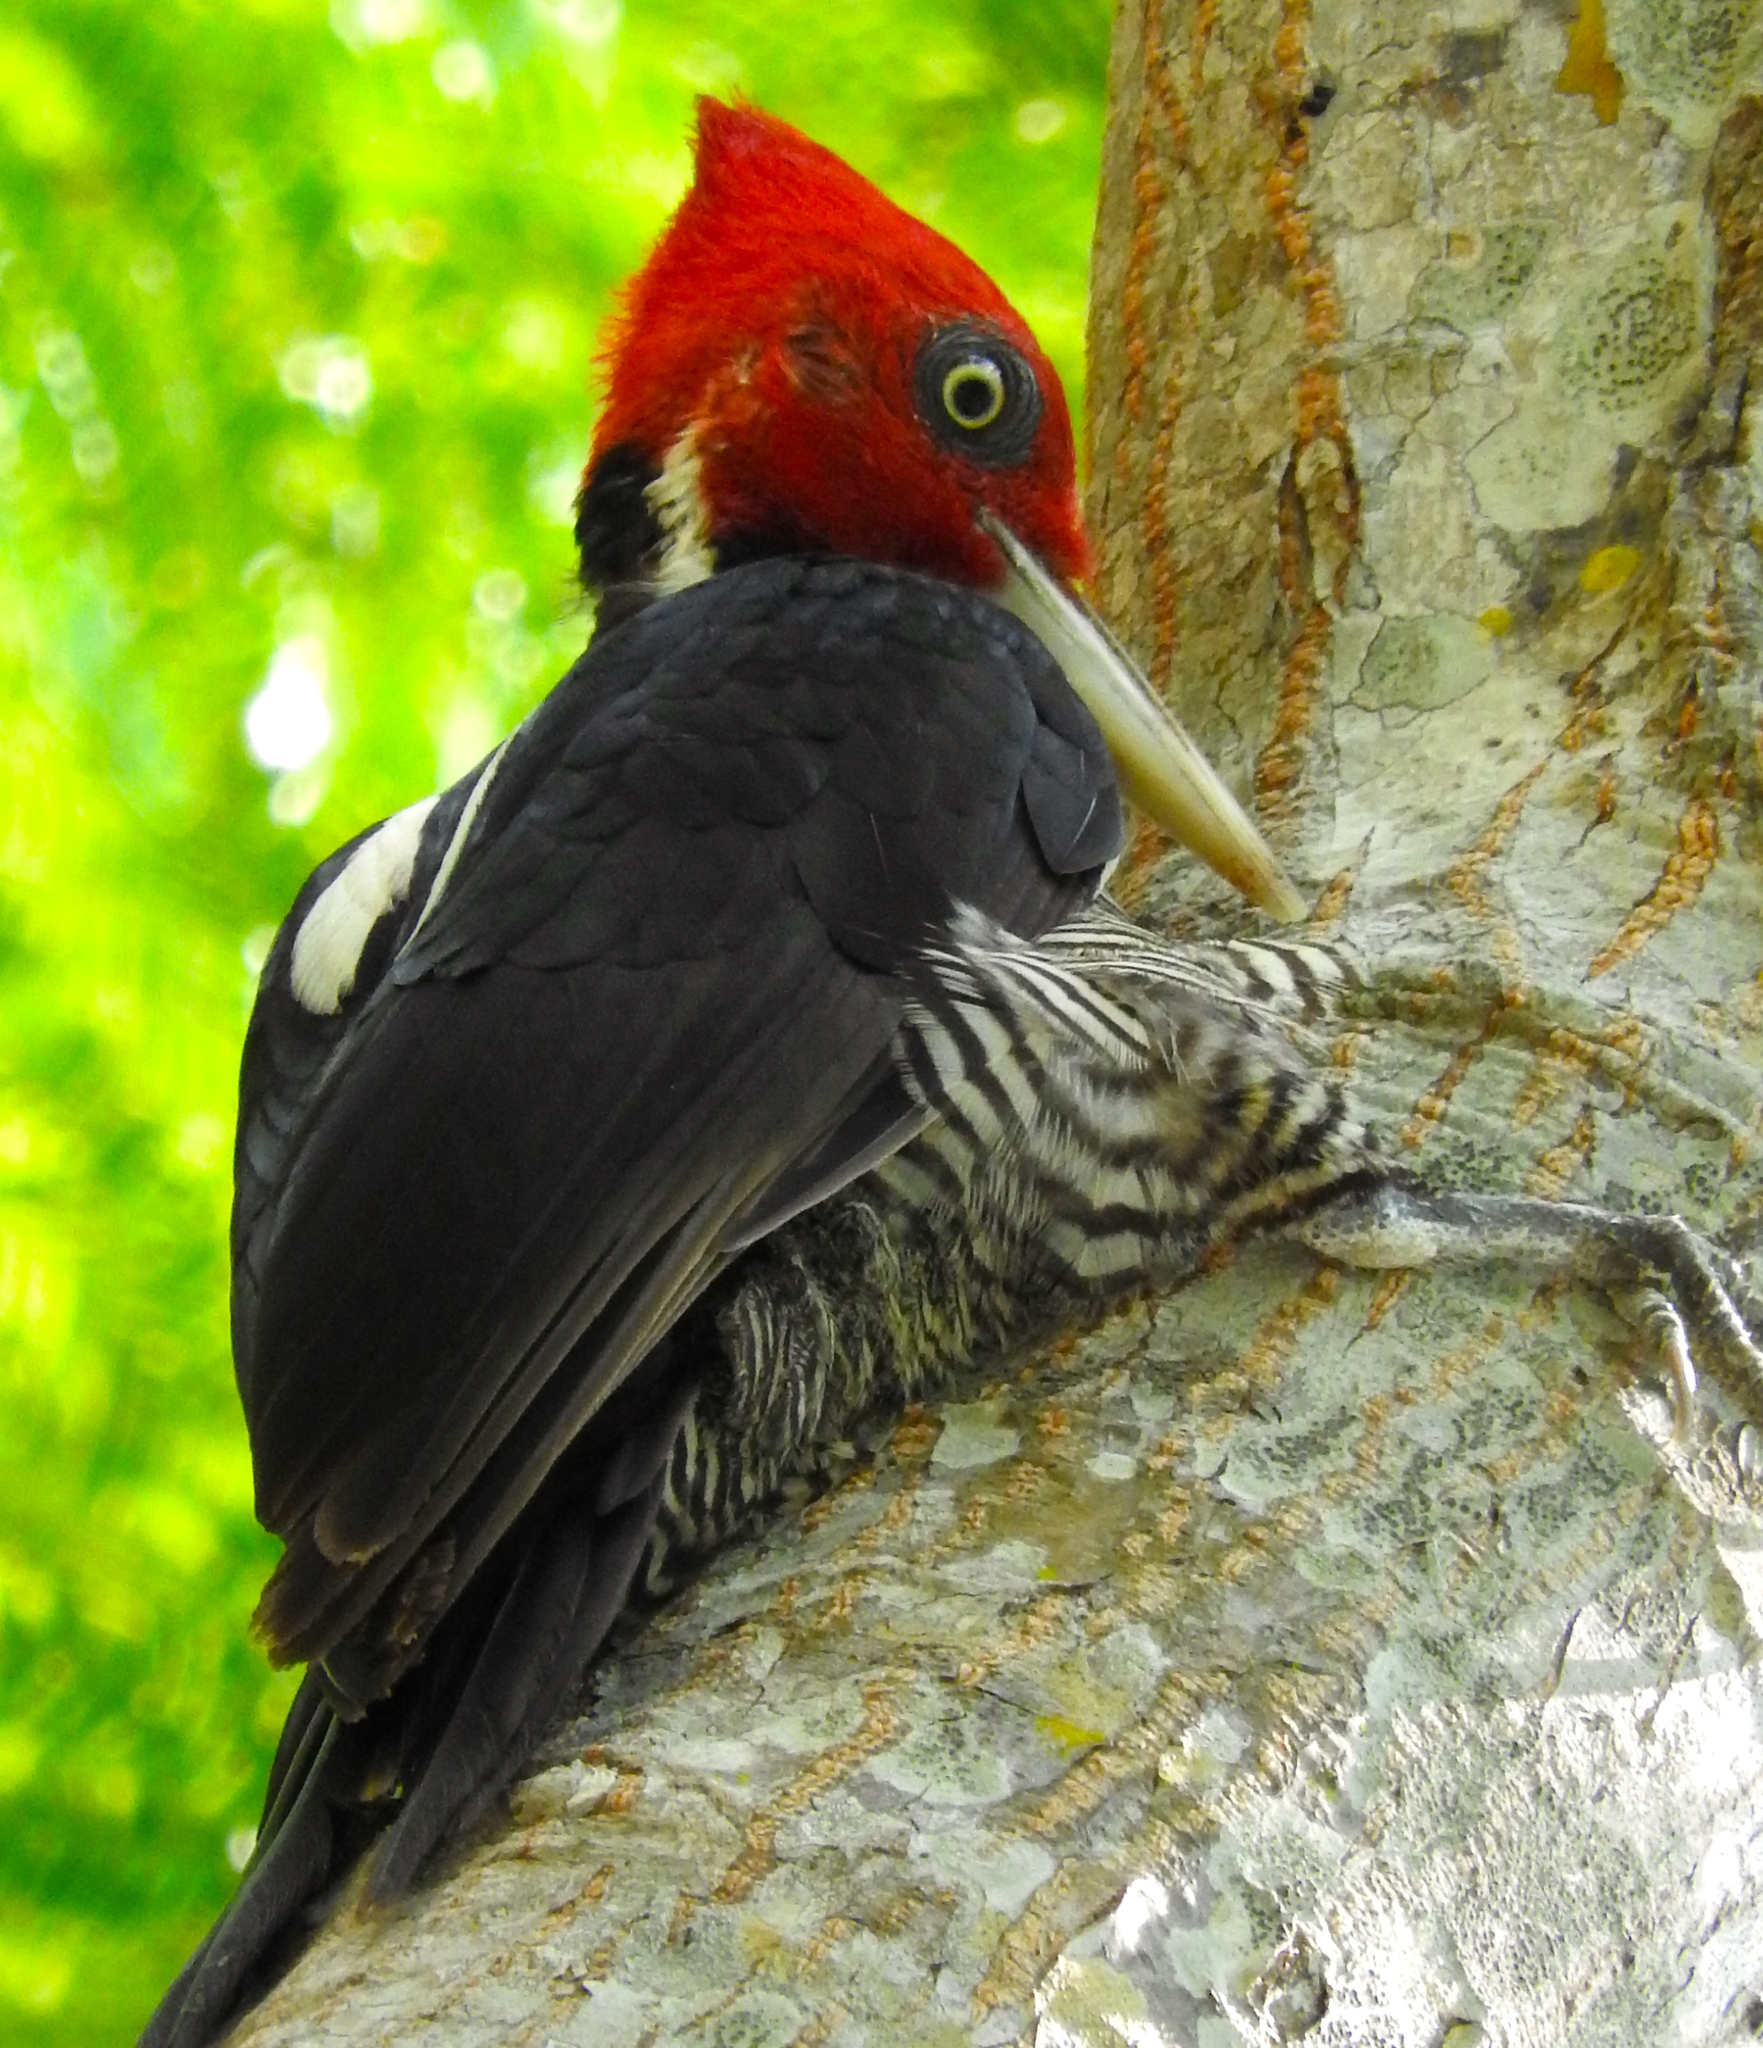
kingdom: Animalia
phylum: Chordata
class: Aves
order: Piciformes
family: Picidae
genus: Campephilus
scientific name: Campephilus guatemalensis
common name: Pale-billed woodpecker
